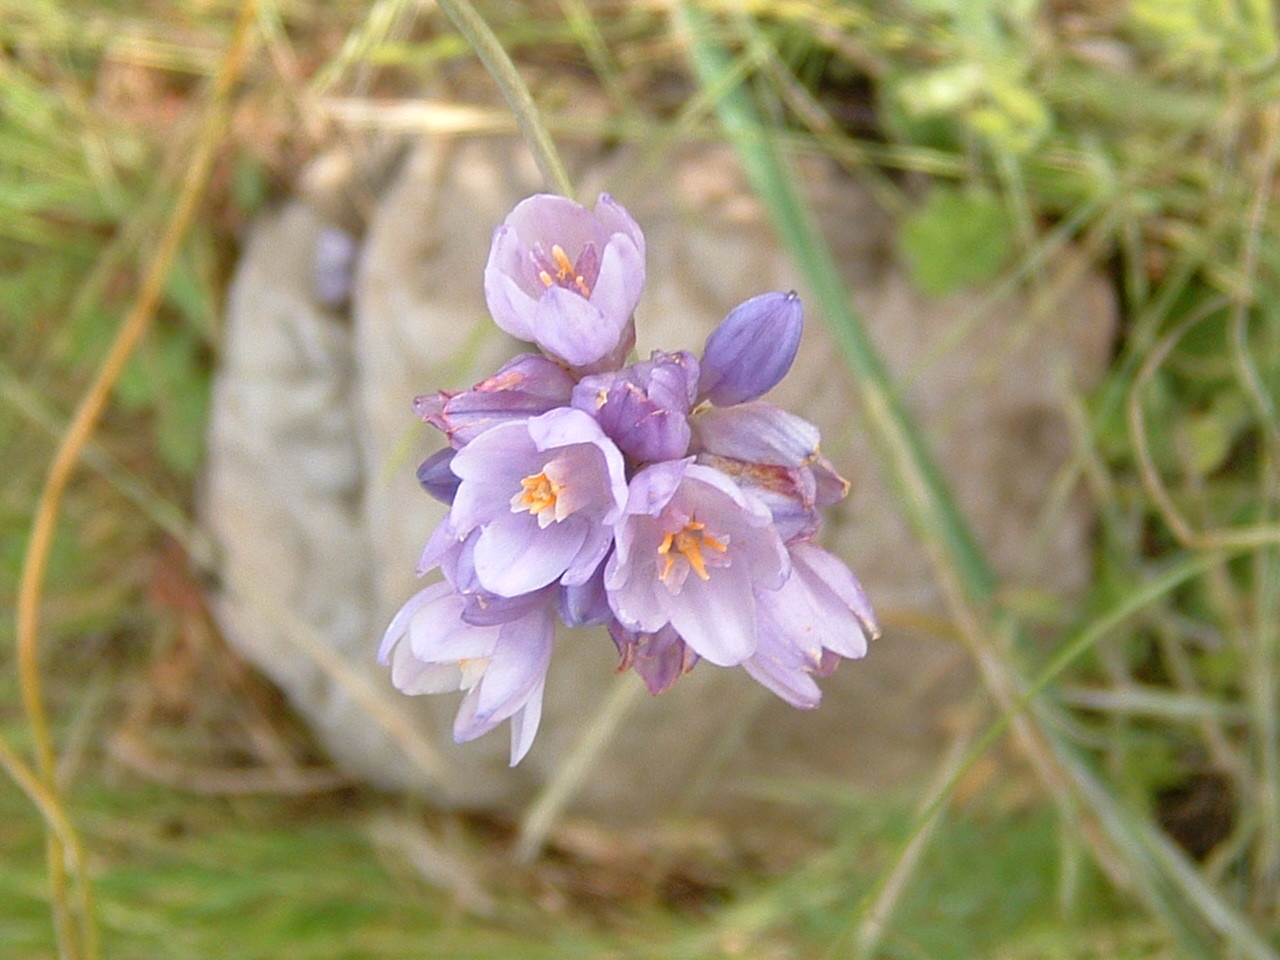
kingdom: Plantae
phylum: Tracheophyta
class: Liliopsida
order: Asparagales
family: Asparagaceae
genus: Dipterostemon
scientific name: Dipterostemon capitatus
